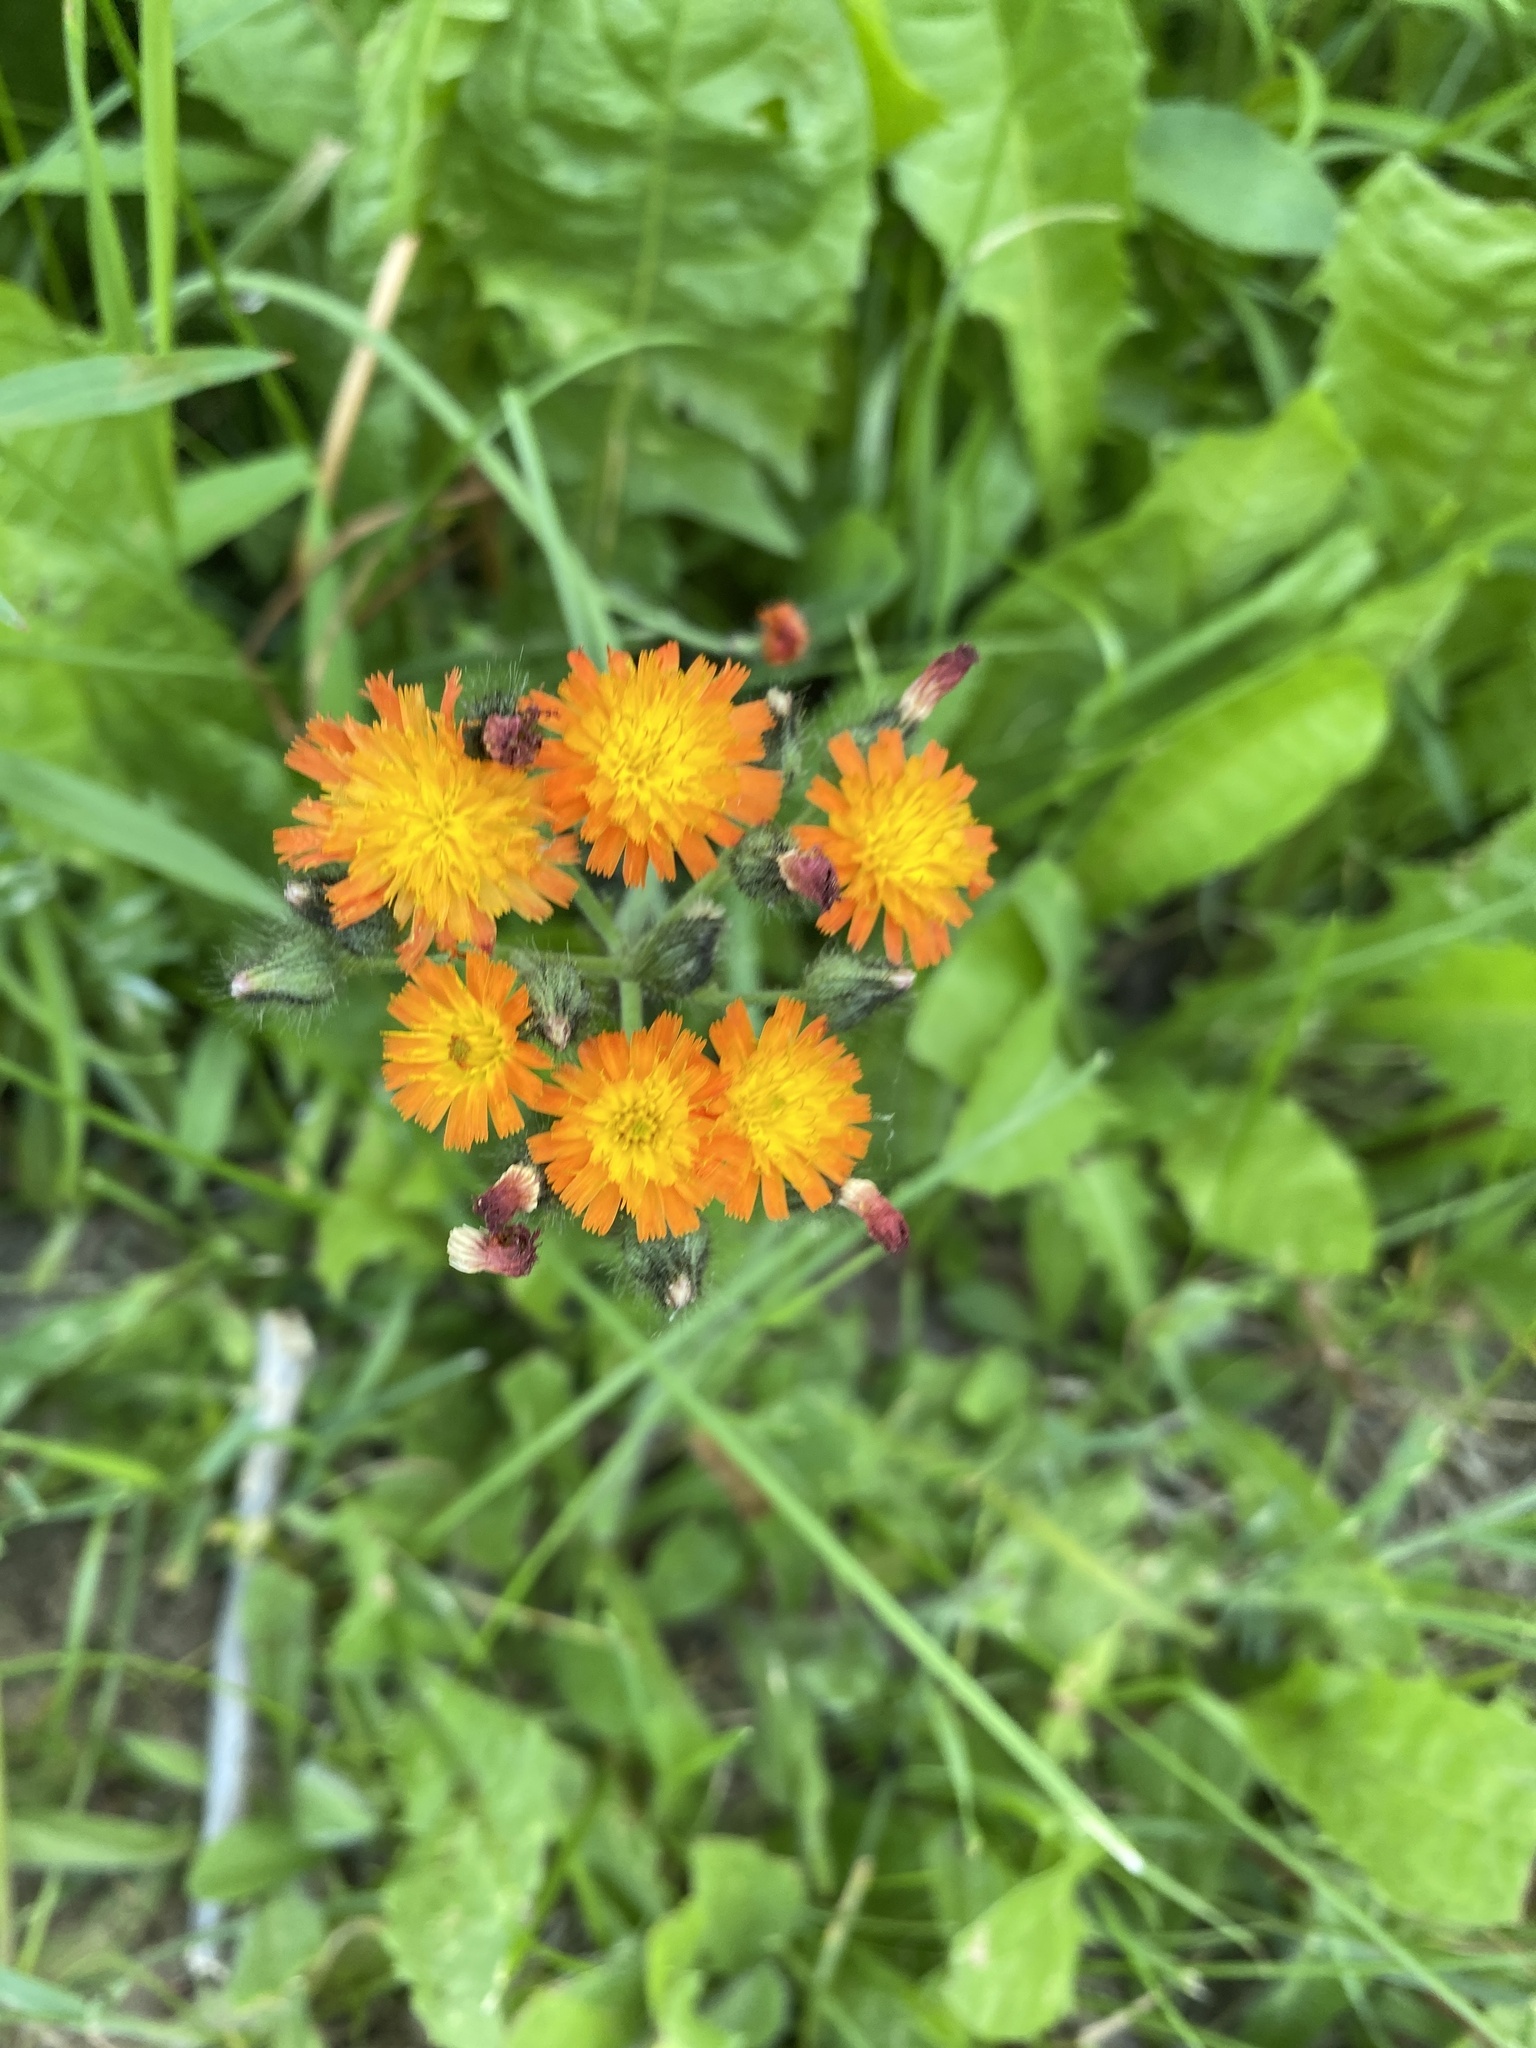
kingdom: Plantae
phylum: Tracheophyta
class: Magnoliopsida
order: Asterales
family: Asteraceae
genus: Pilosella
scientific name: Pilosella aurantiaca
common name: Fox-and-cubs
